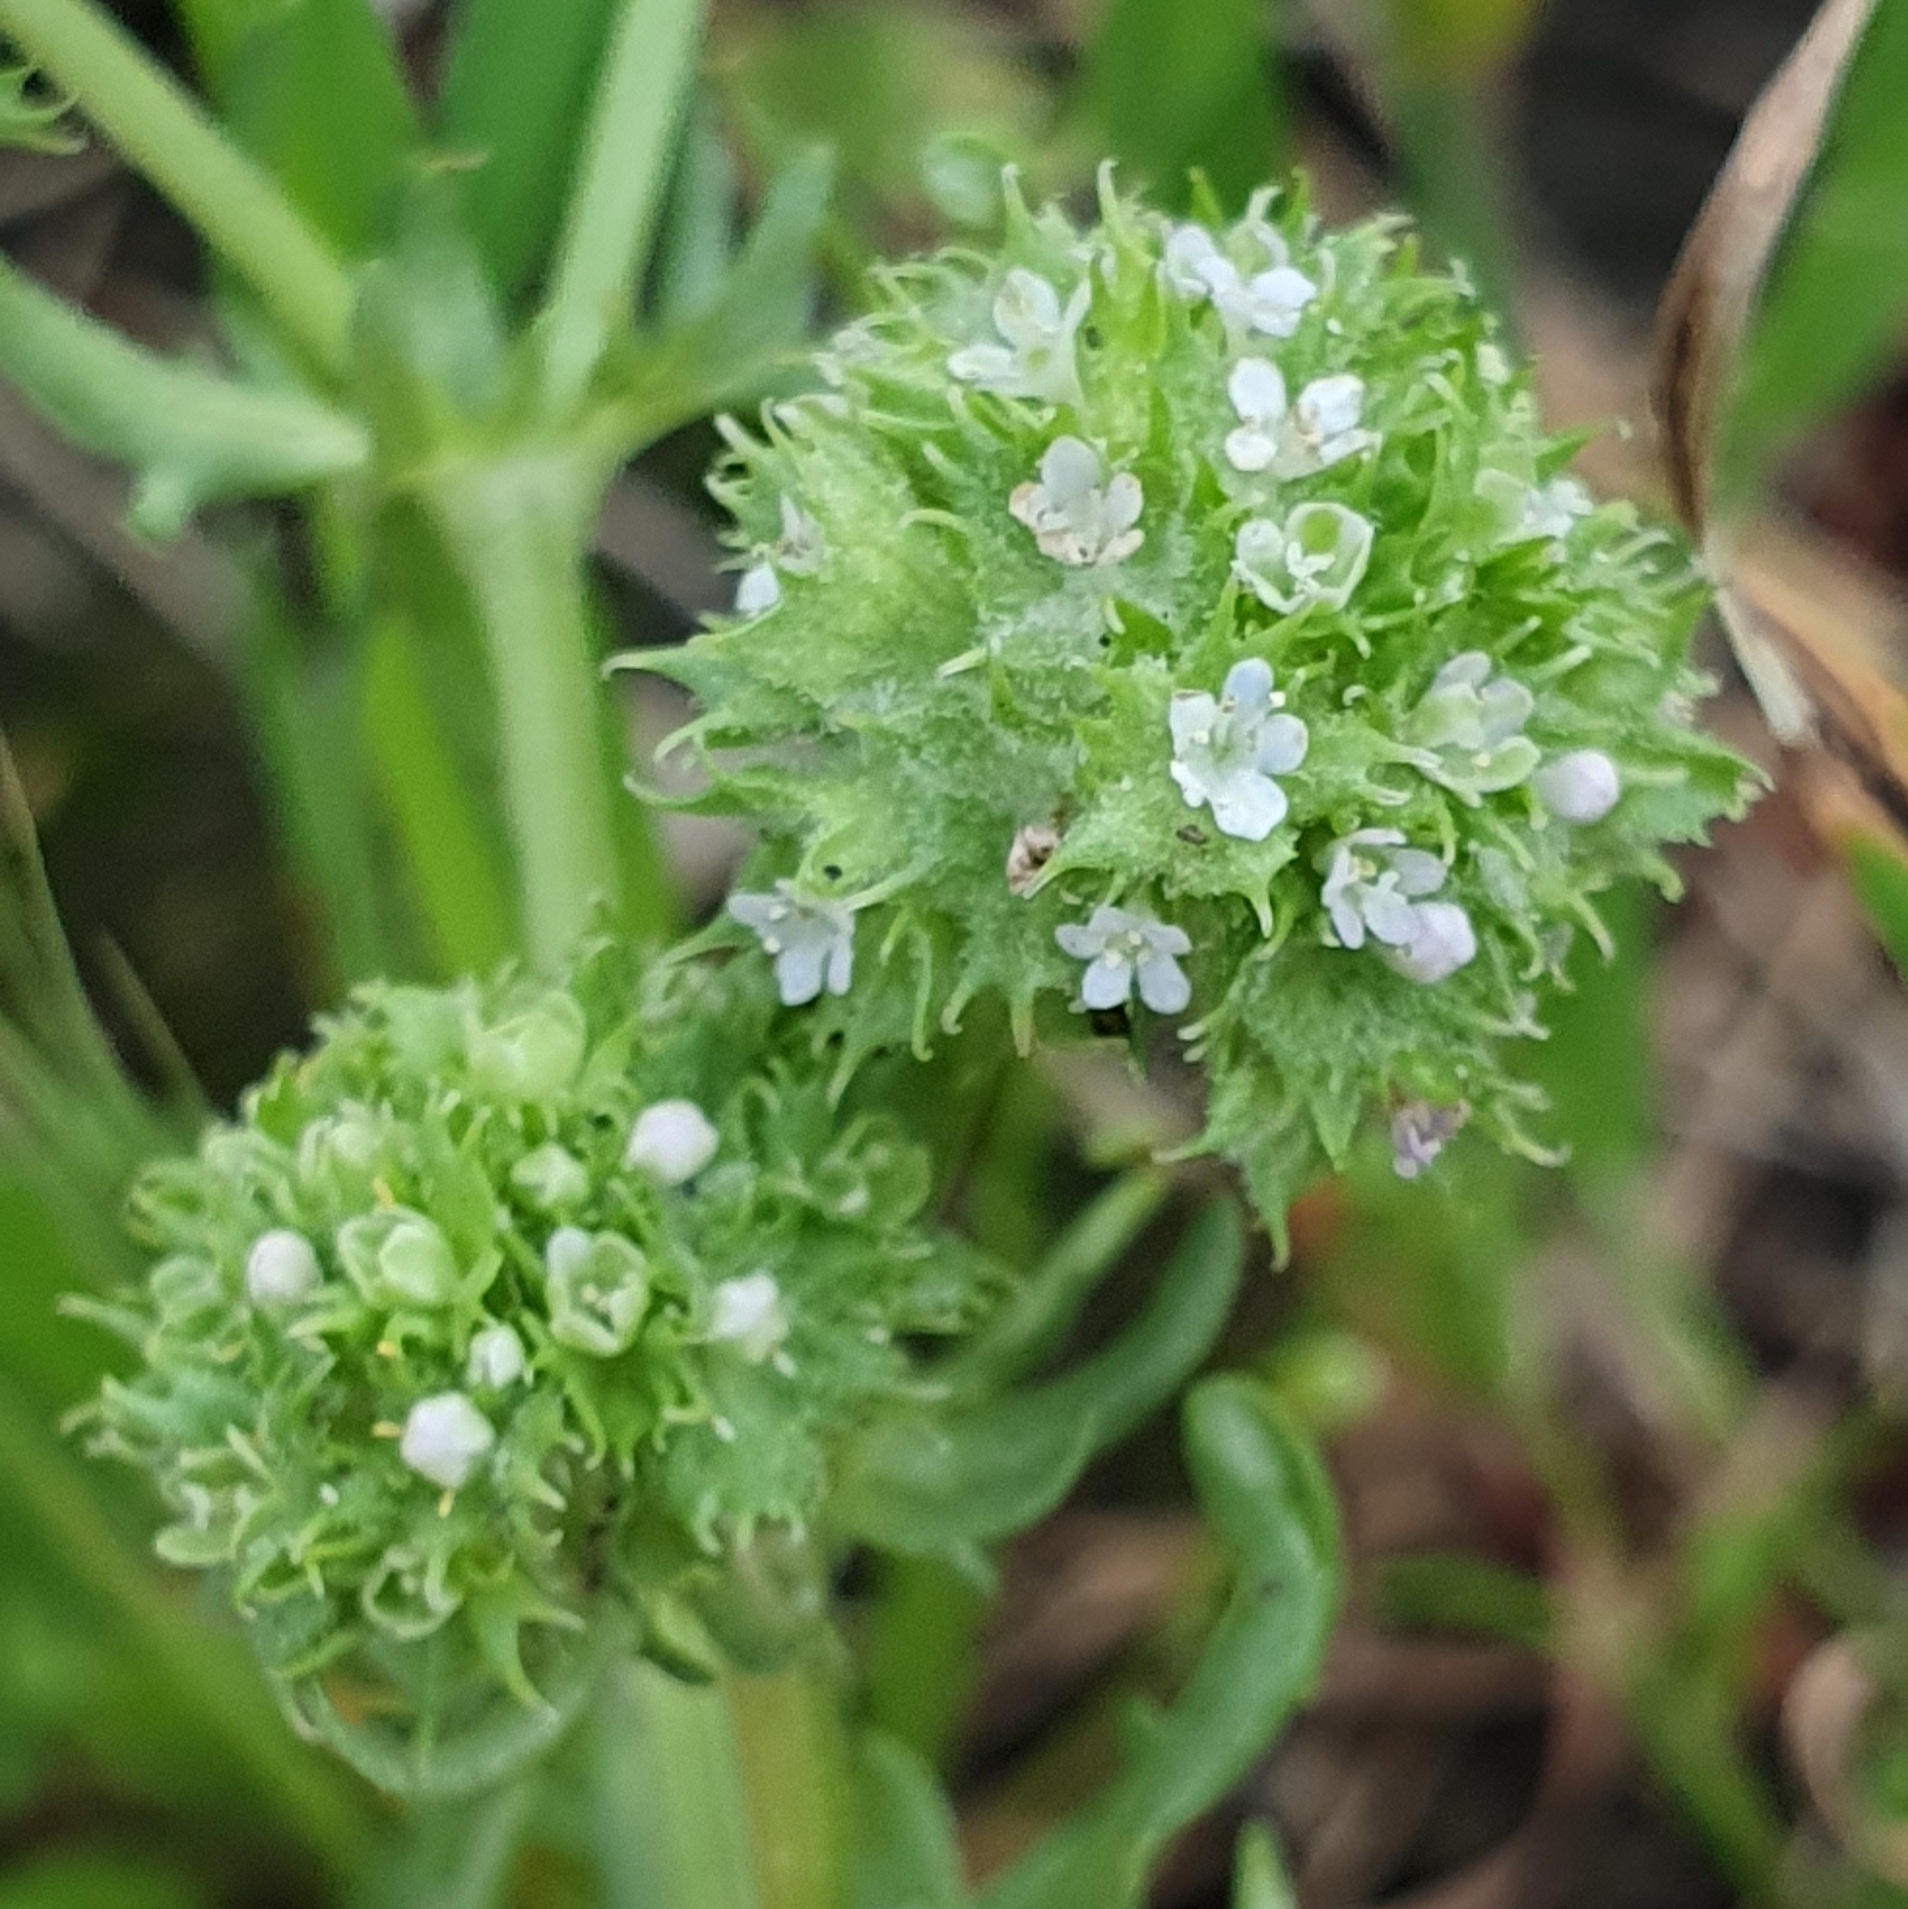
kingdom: Plantae
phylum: Tracheophyta
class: Magnoliopsida
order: Dipsacales
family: Caprifoliaceae
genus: Valerianella
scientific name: Valerianella discoidea
